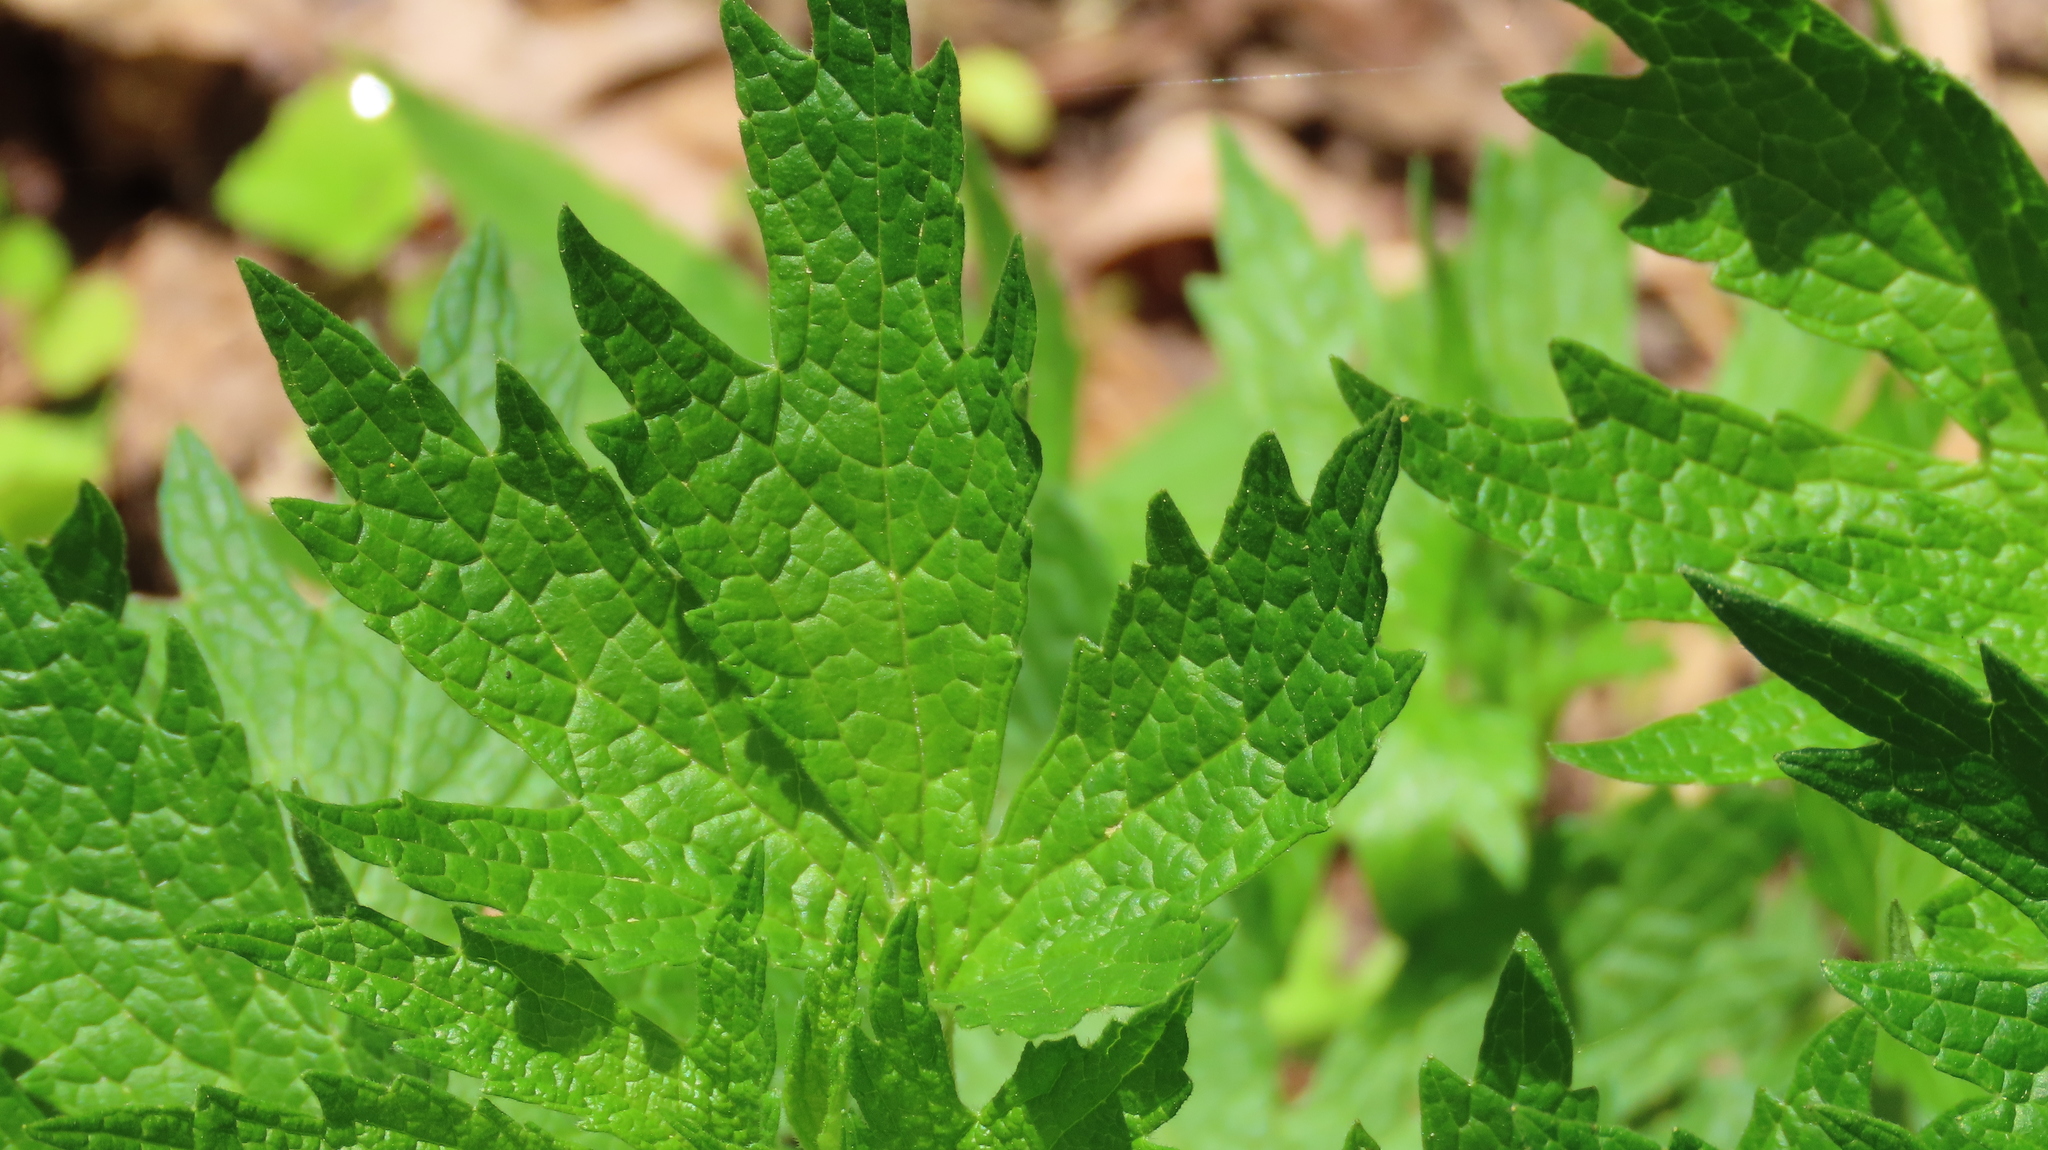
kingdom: Plantae
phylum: Tracheophyta
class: Magnoliopsida
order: Lamiales
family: Lamiaceae
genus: Leonurus
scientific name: Leonurus cardiaca
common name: Motherwort
